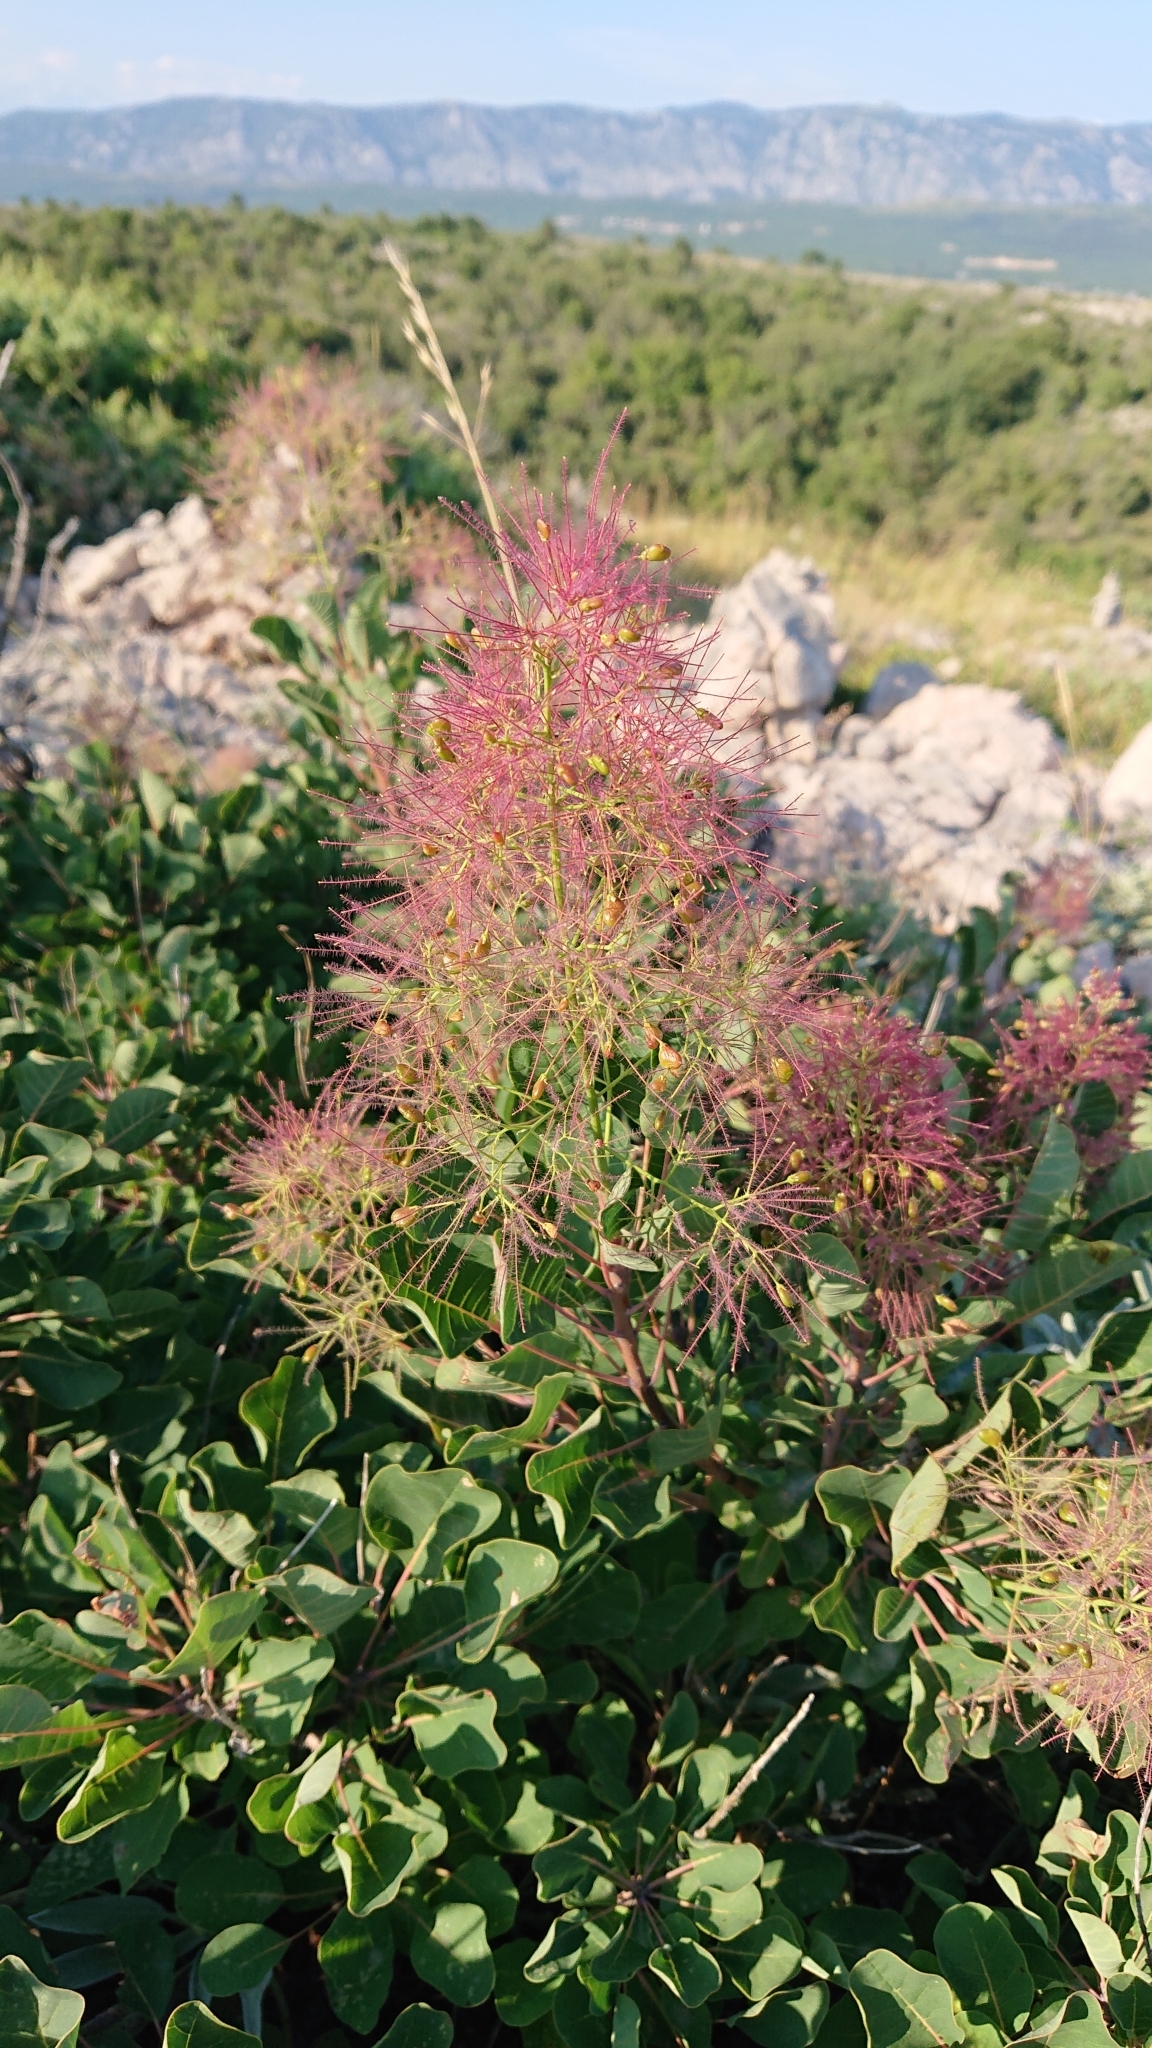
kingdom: Plantae
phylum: Tracheophyta
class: Magnoliopsida
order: Sapindales
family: Anacardiaceae
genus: Cotinus
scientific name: Cotinus coggygria
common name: Smoke-tree
